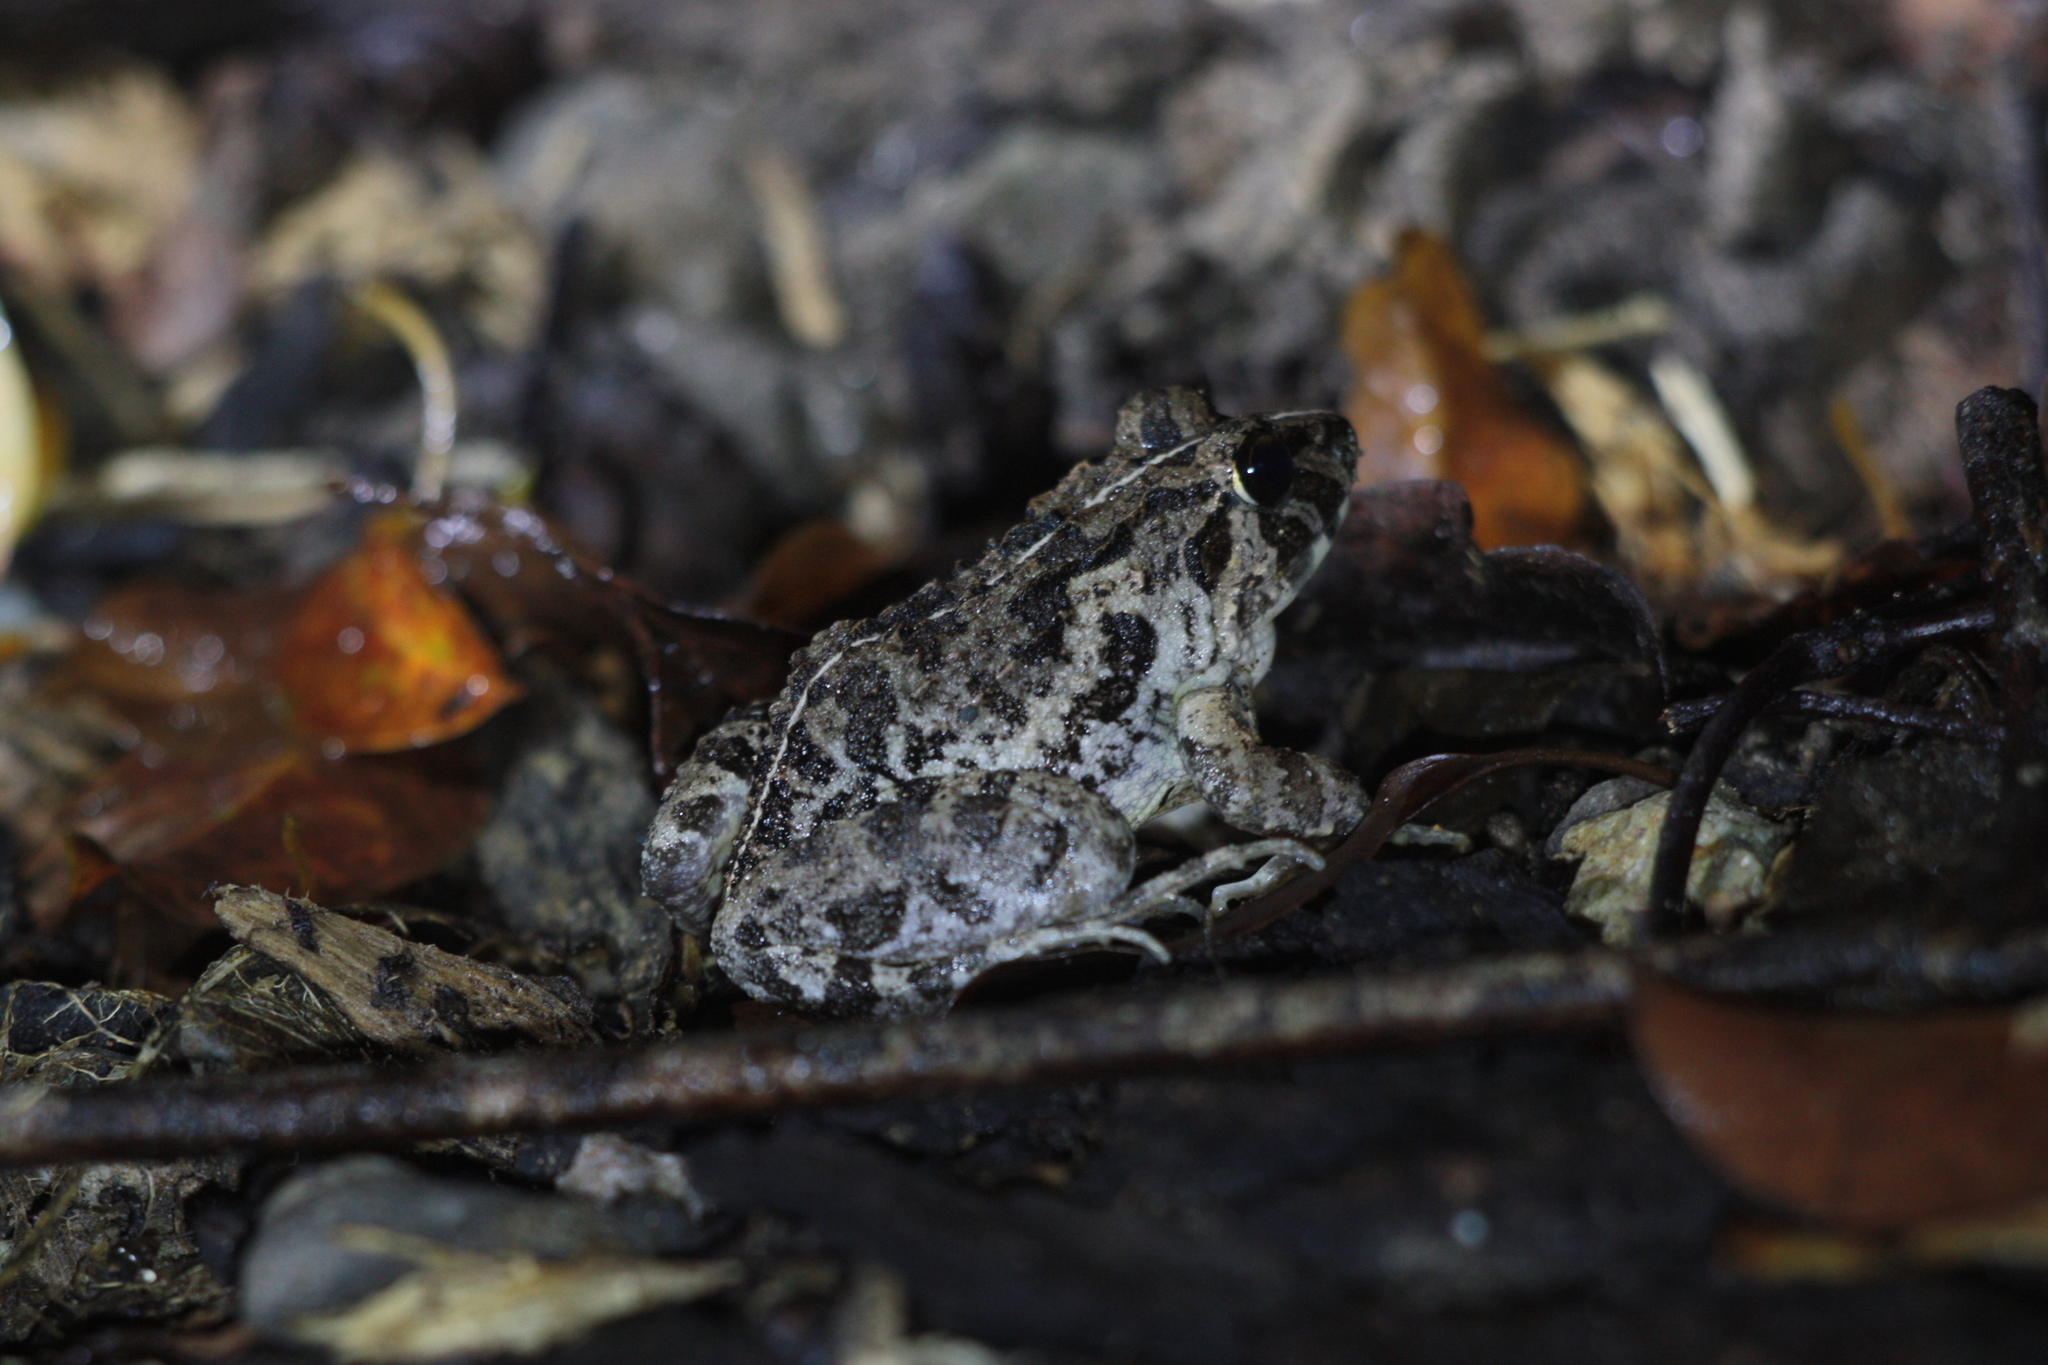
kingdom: Animalia
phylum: Chordata
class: Amphibia
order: Anura
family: Dicroglossidae
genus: Fejervarya
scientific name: Fejervarya limnocharis
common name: Asian grass frog/common pond frog/field frog/grass frog/indian rice frog
